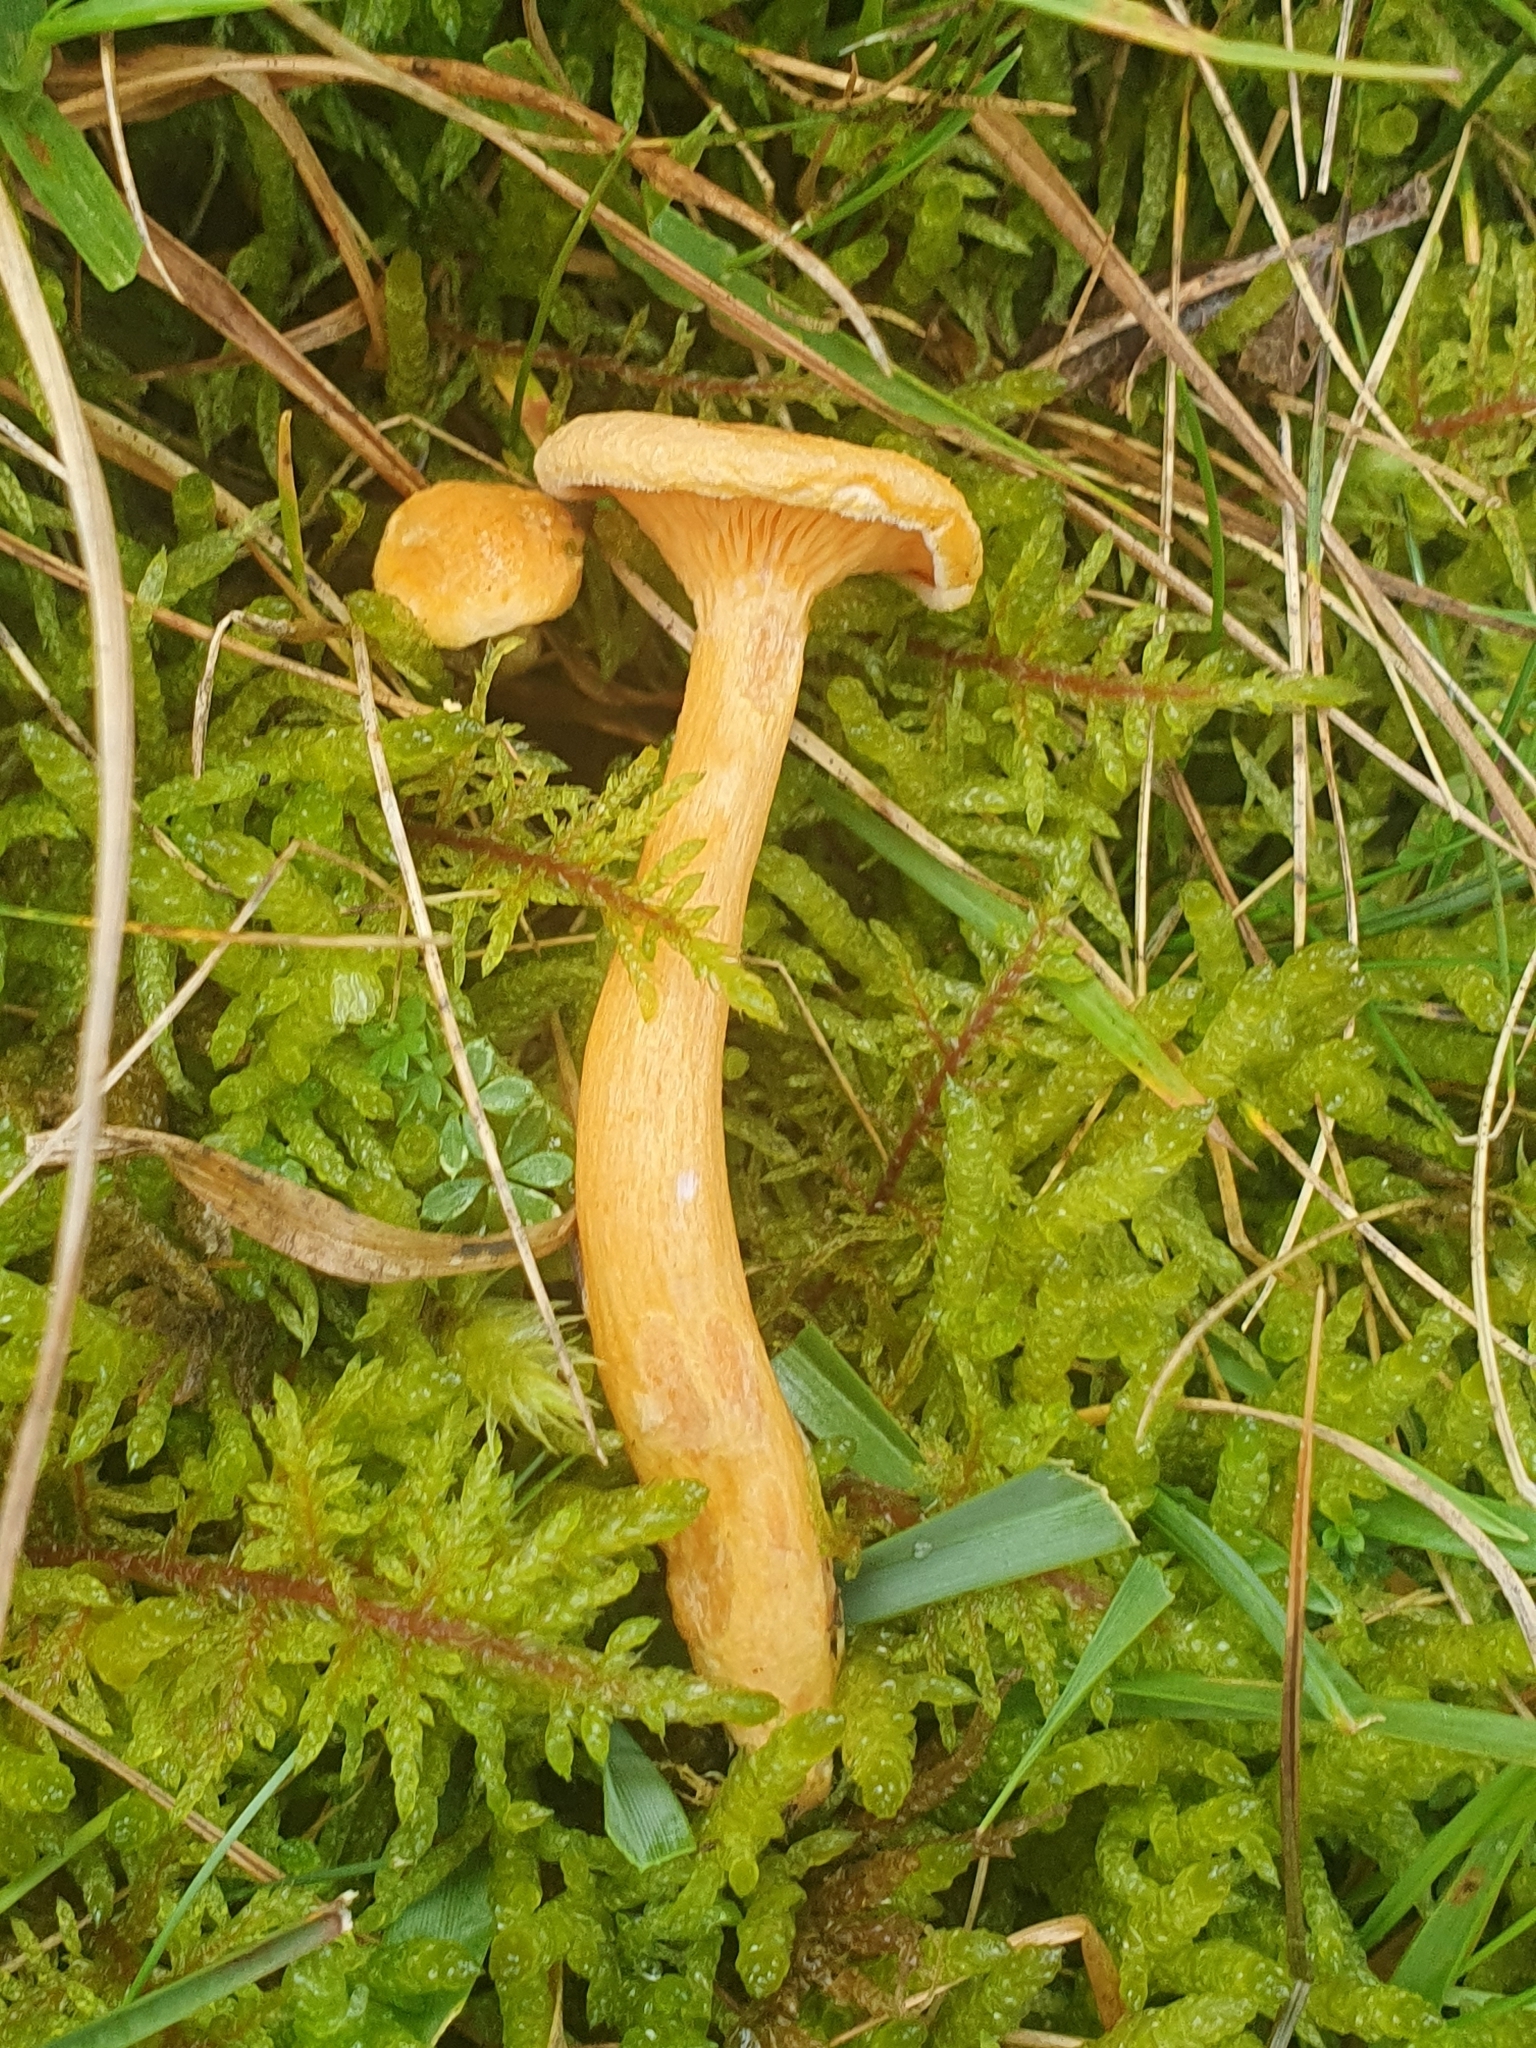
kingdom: Fungi
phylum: Basidiomycota
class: Agaricomycetes
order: Boletales
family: Hygrophoropsidaceae
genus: Hygrophoropsis
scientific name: Hygrophoropsis aurantiaca
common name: False chanterelle
